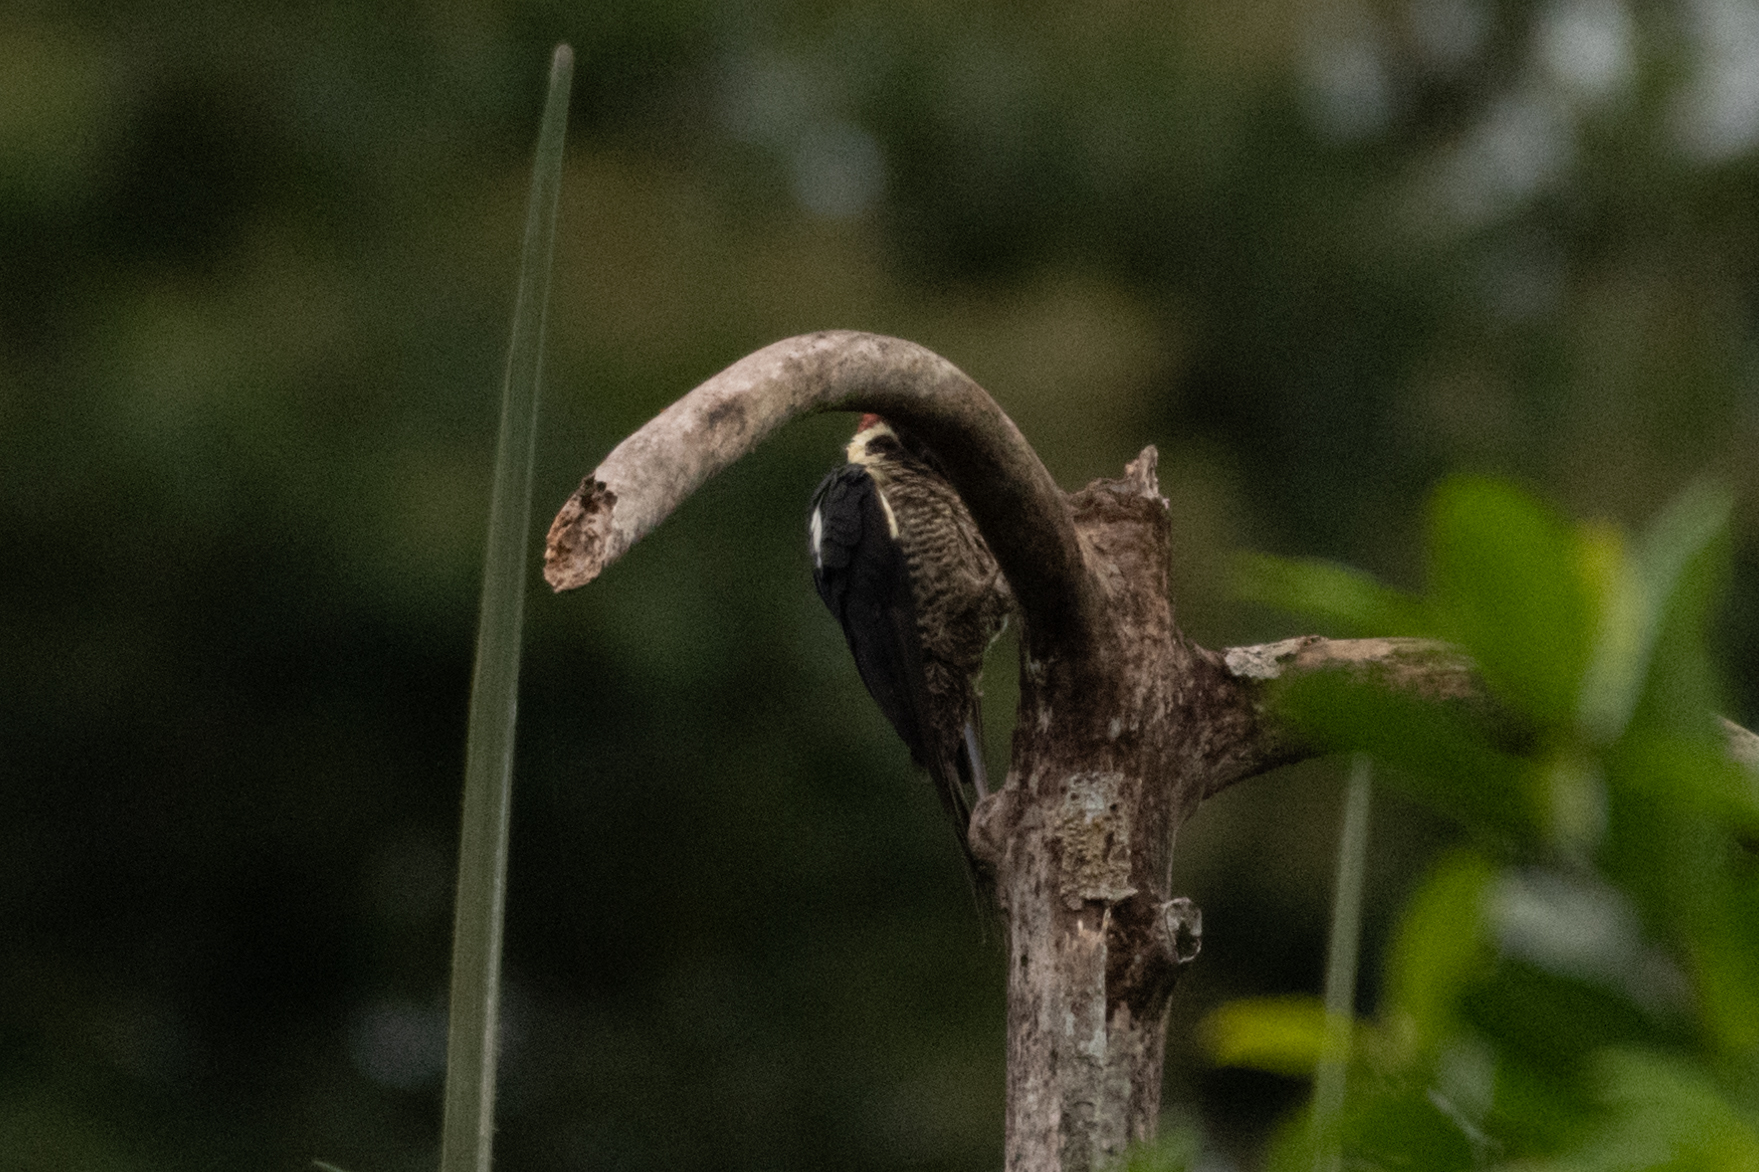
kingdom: Animalia
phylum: Chordata
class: Aves
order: Piciformes
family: Picidae
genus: Dryocopus
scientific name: Dryocopus lineatus
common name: Lineated woodpecker
